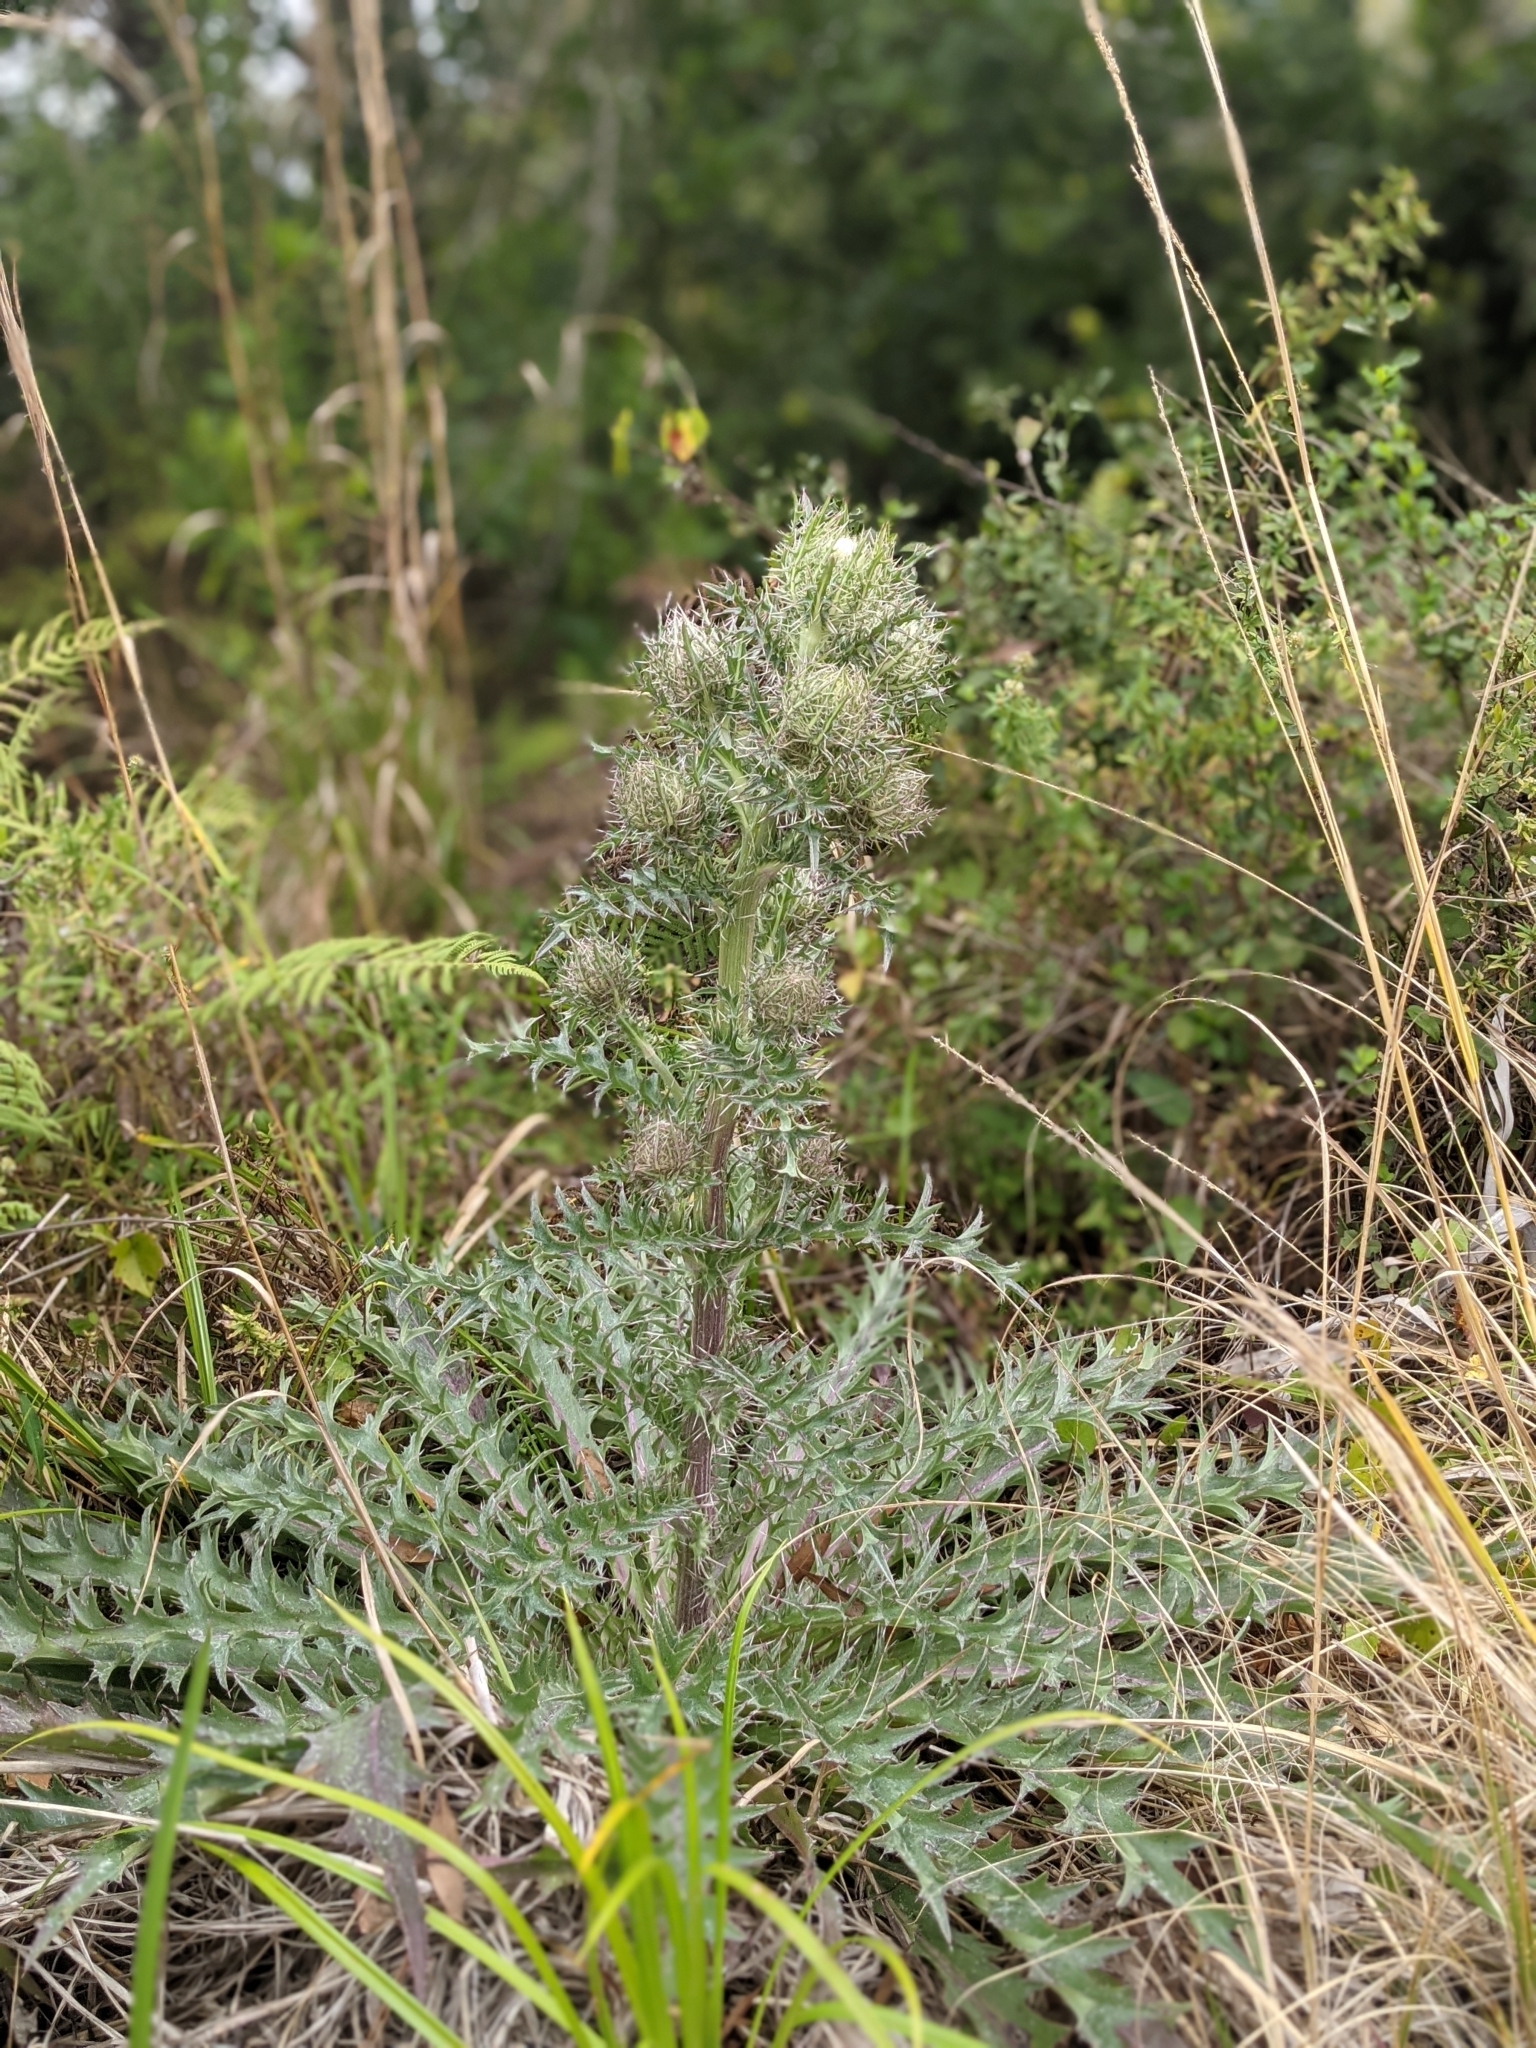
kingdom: Plantae
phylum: Tracheophyta
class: Magnoliopsida
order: Asterales
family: Asteraceae
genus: Cirsium
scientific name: Cirsium horridulum
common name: Bristly thistle
